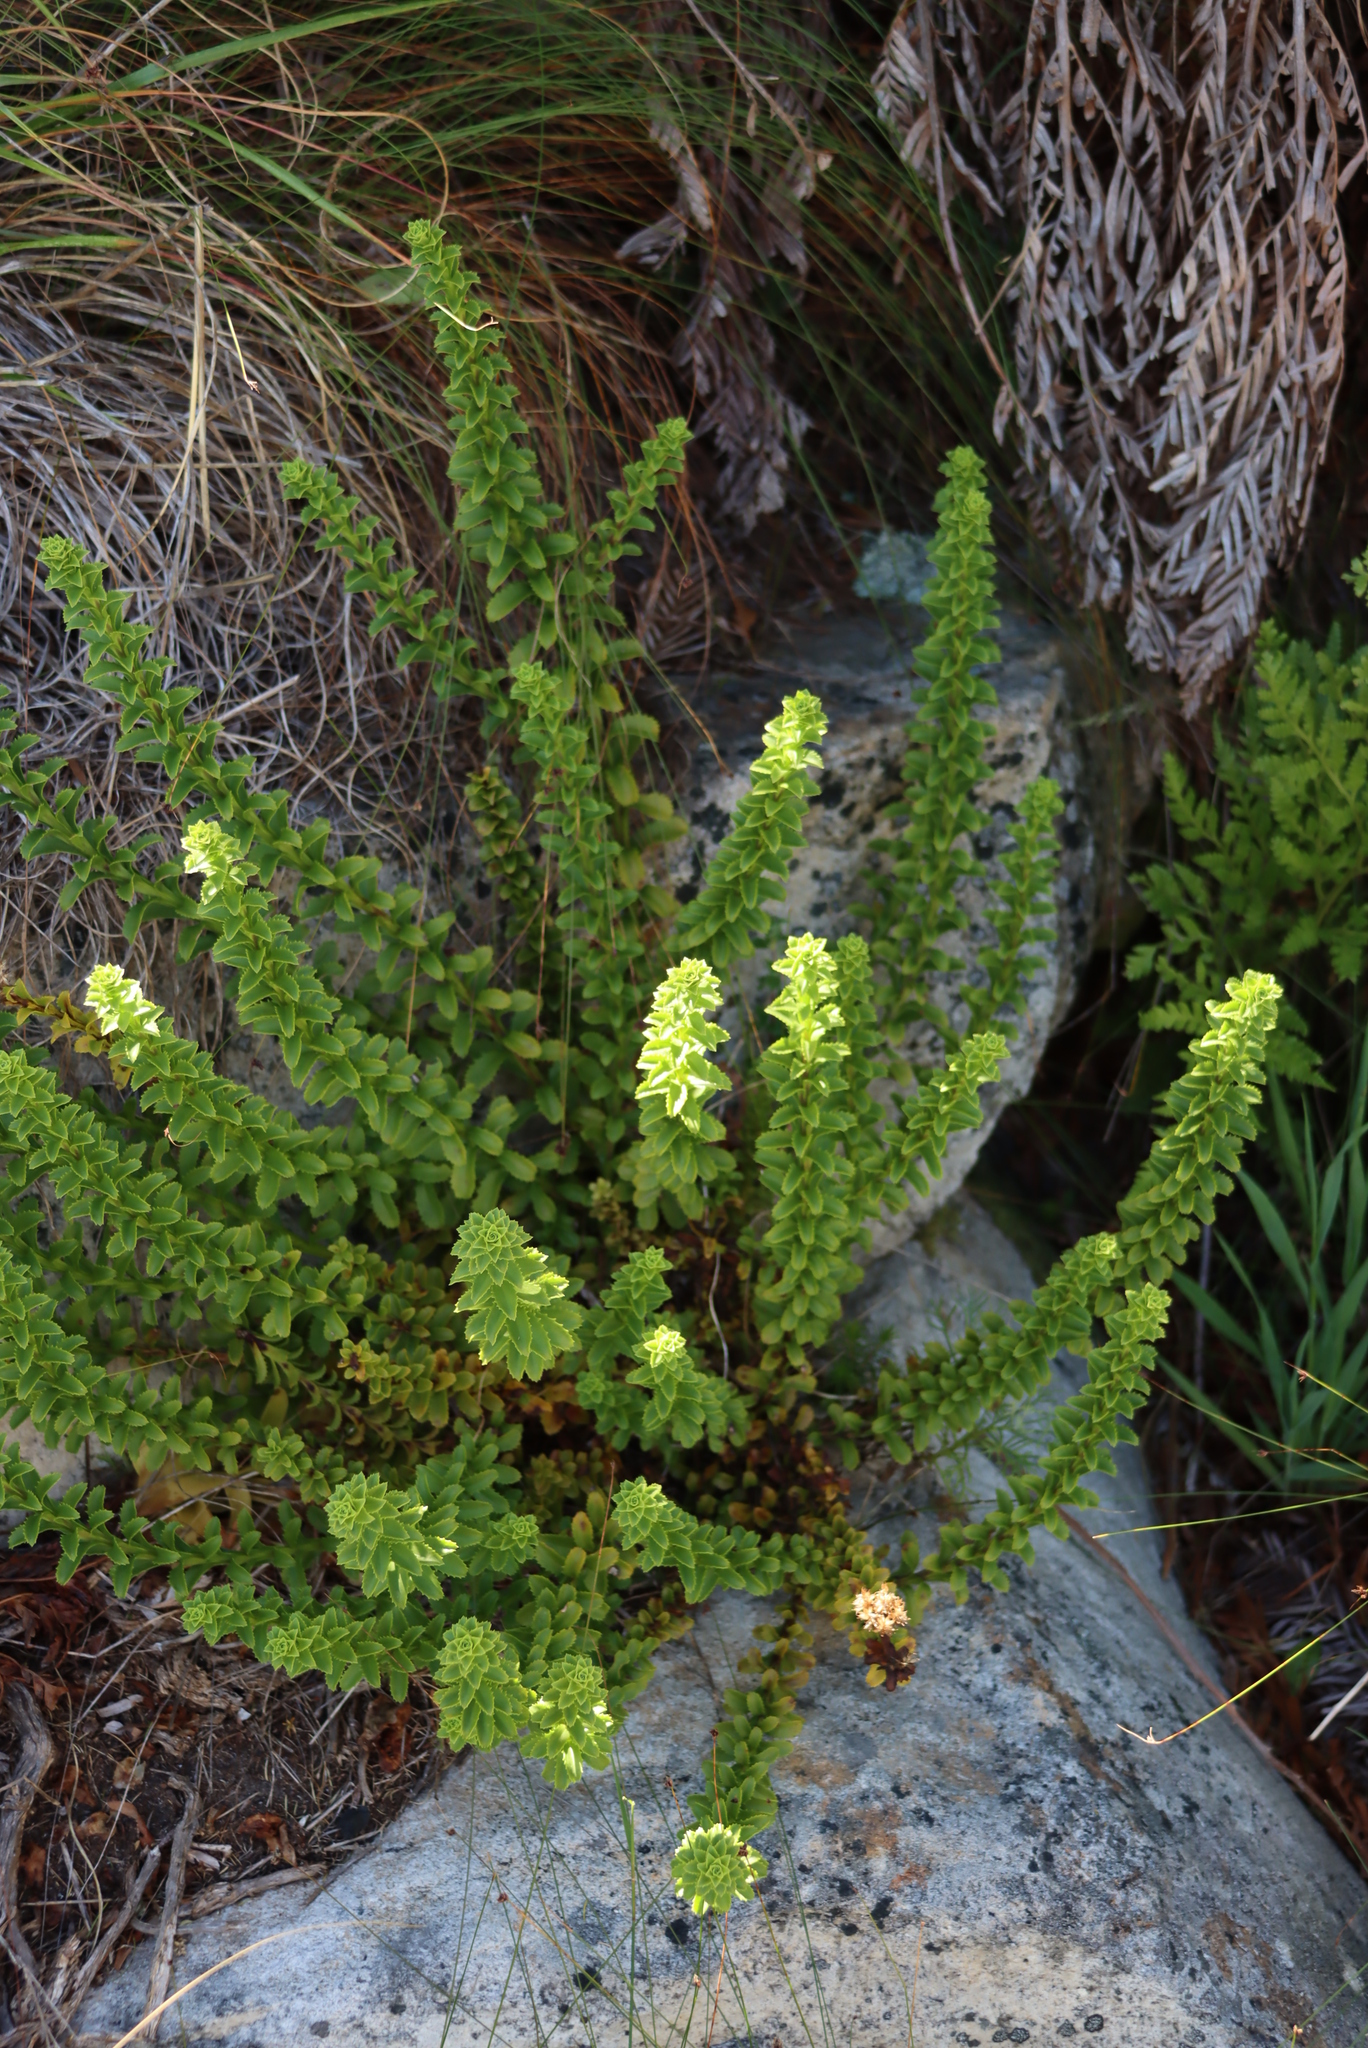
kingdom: Plantae
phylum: Tracheophyta
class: Magnoliopsida
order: Lamiales
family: Scrophulariaceae
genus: Pseudoselago
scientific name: Pseudoselago serrata
